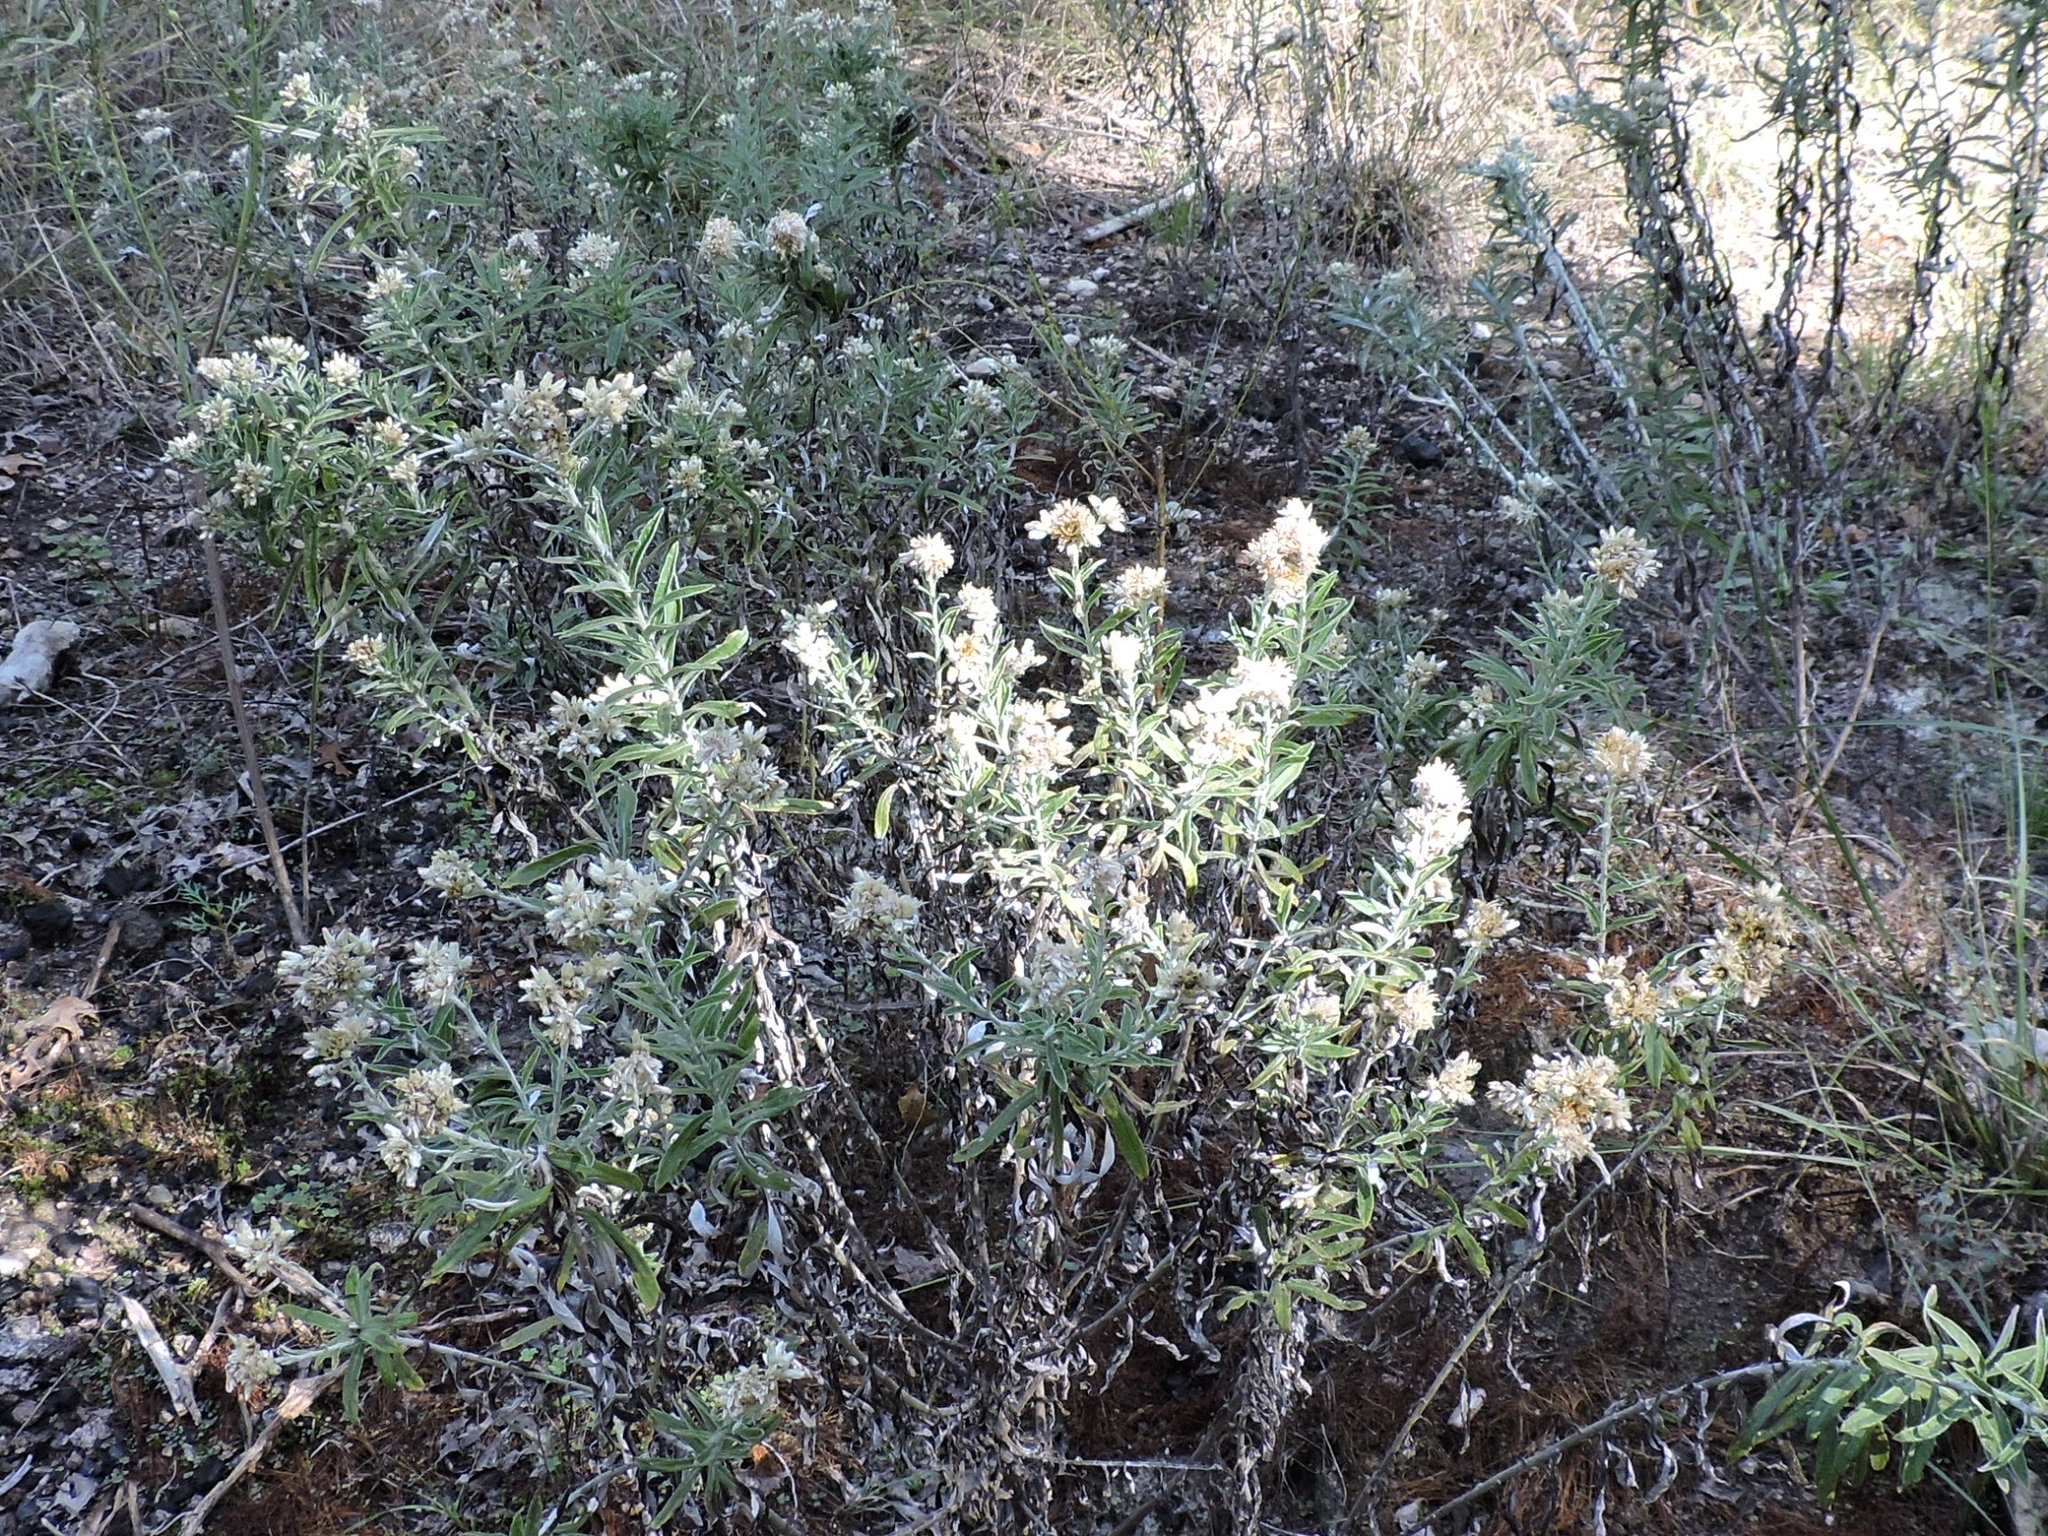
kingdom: Plantae
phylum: Tracheophyta
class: Magnoliopsida
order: Asterales
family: Asteraceae
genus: Pseudognaphalium
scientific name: Pseudognaphalium obtusifolium
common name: Eastern rabbit-tobacco
